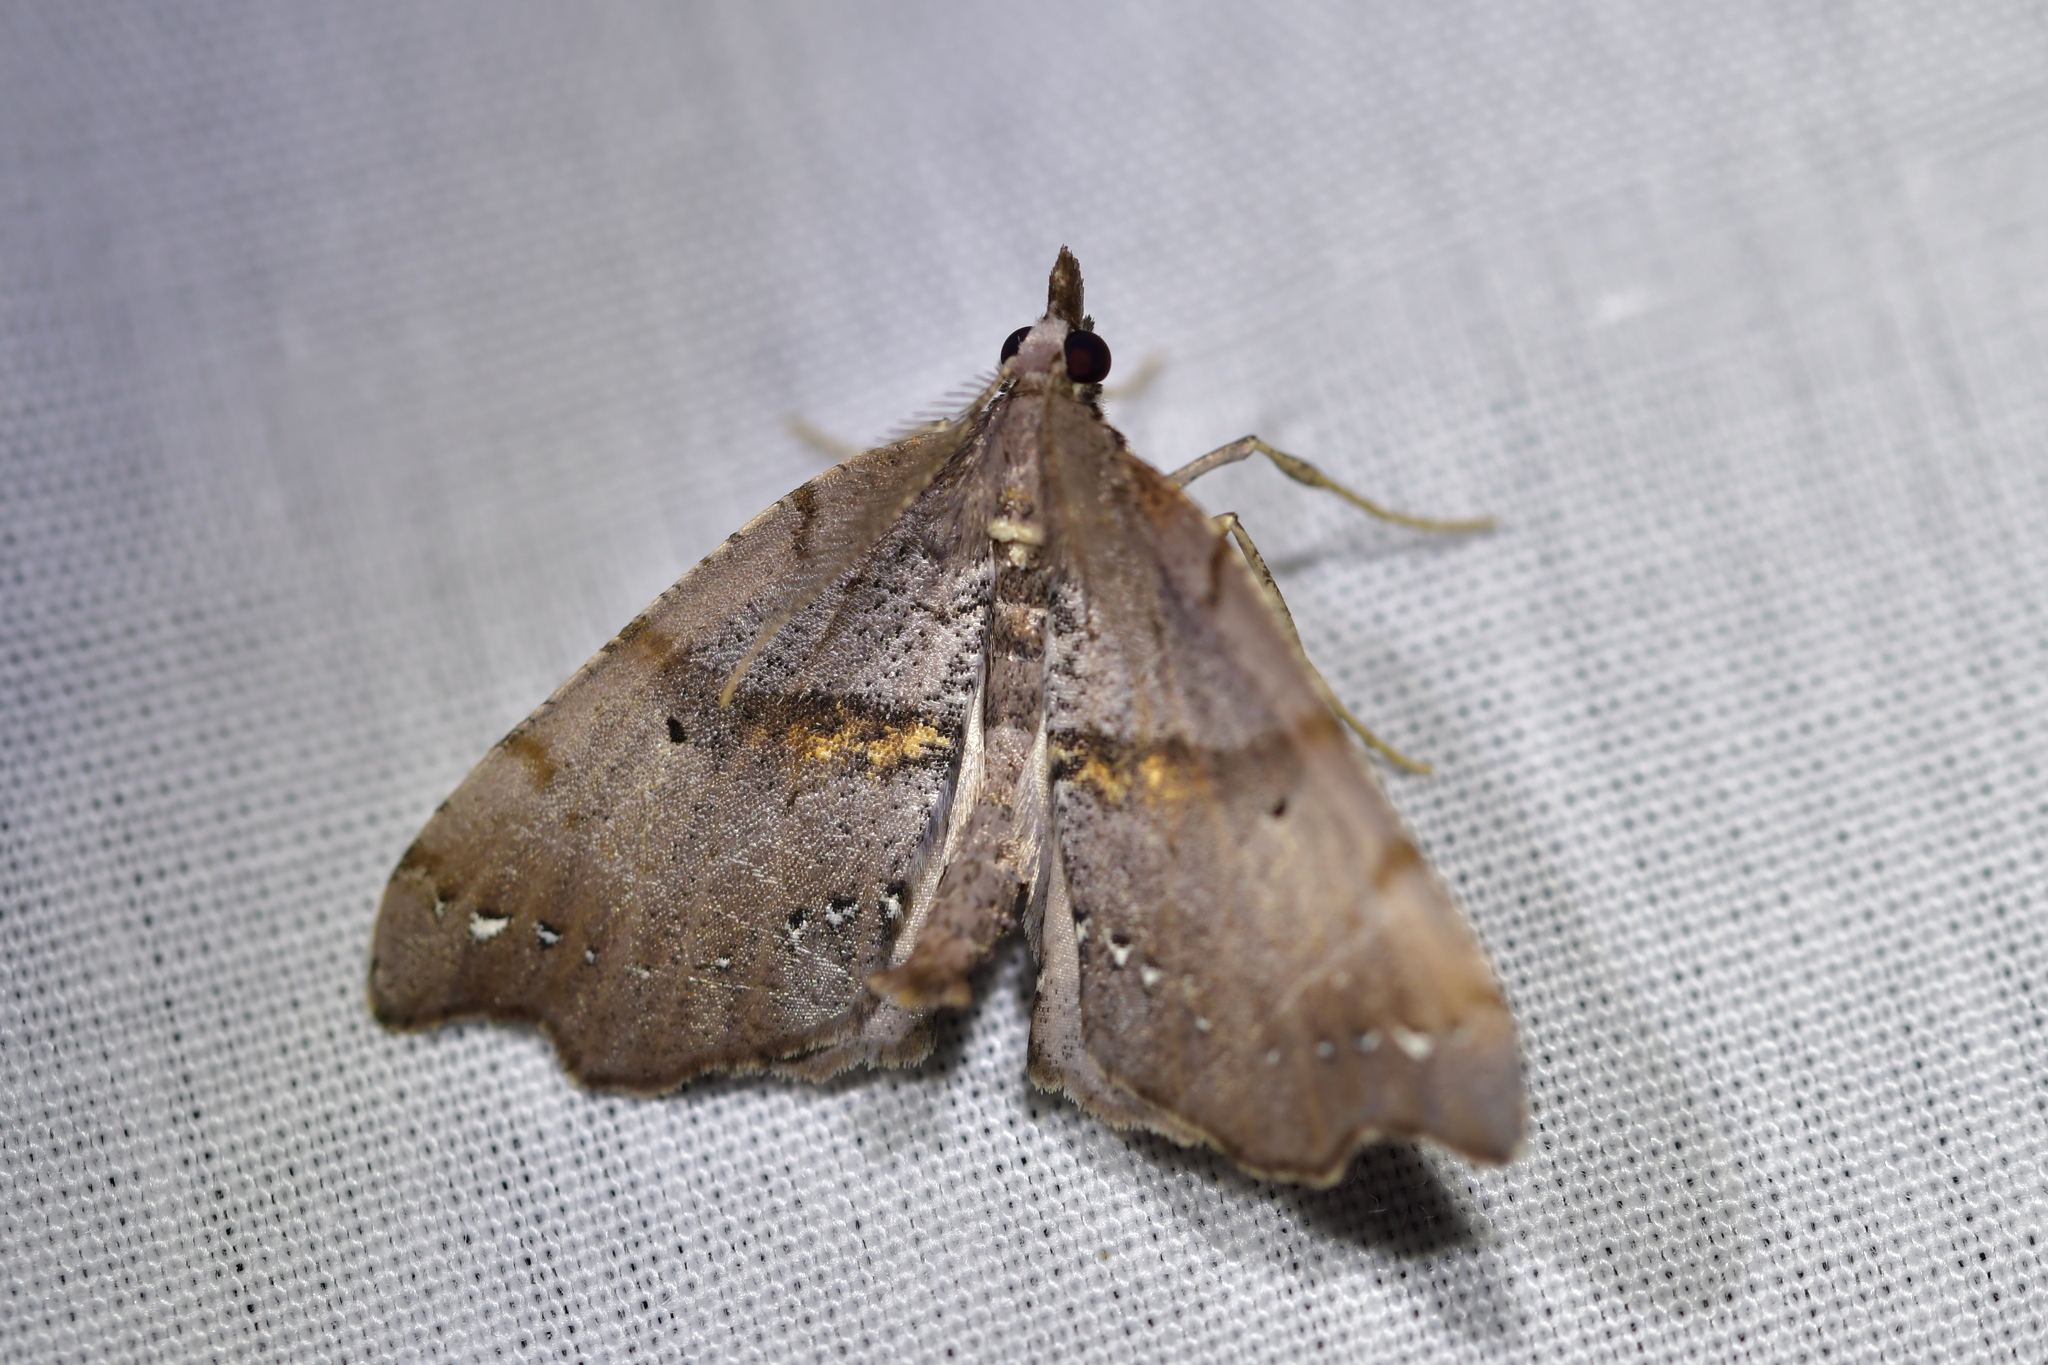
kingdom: Animalia
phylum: Arthropoda
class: Insecta
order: Lepidoptera
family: Geometridae
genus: Chalastra
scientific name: Chalastra pellurgata
